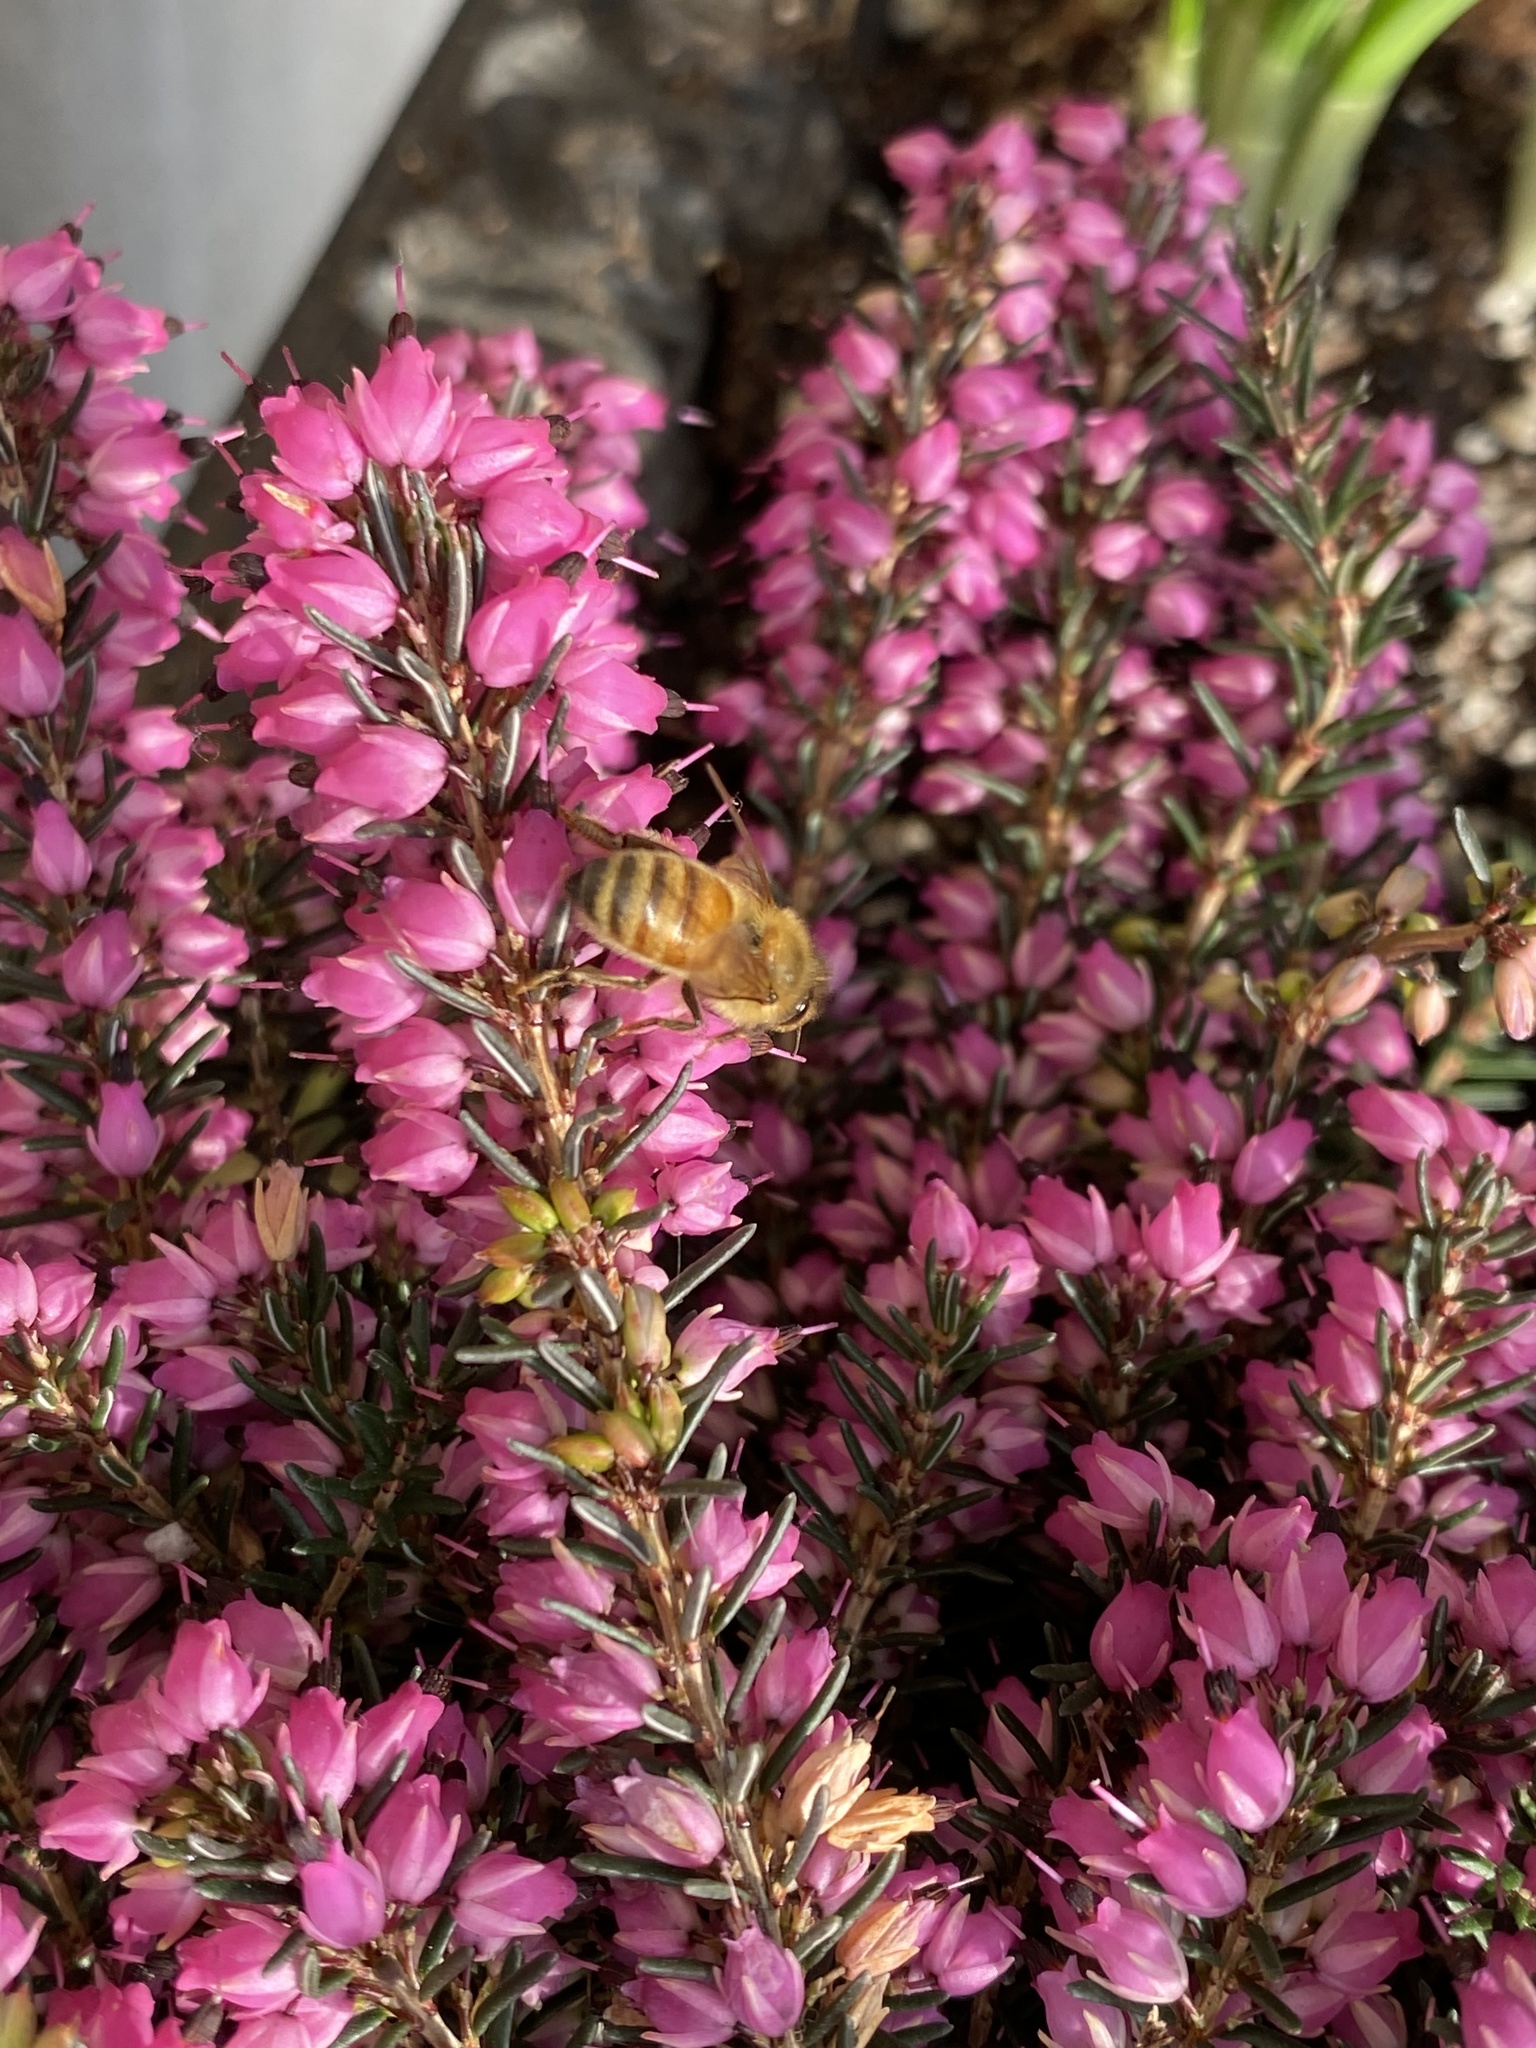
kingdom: Animalia
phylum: Arthropoda
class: Insecta
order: Hymenoptera
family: Apidae
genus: Apis
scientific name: Apis mellifera
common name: Honey bee
